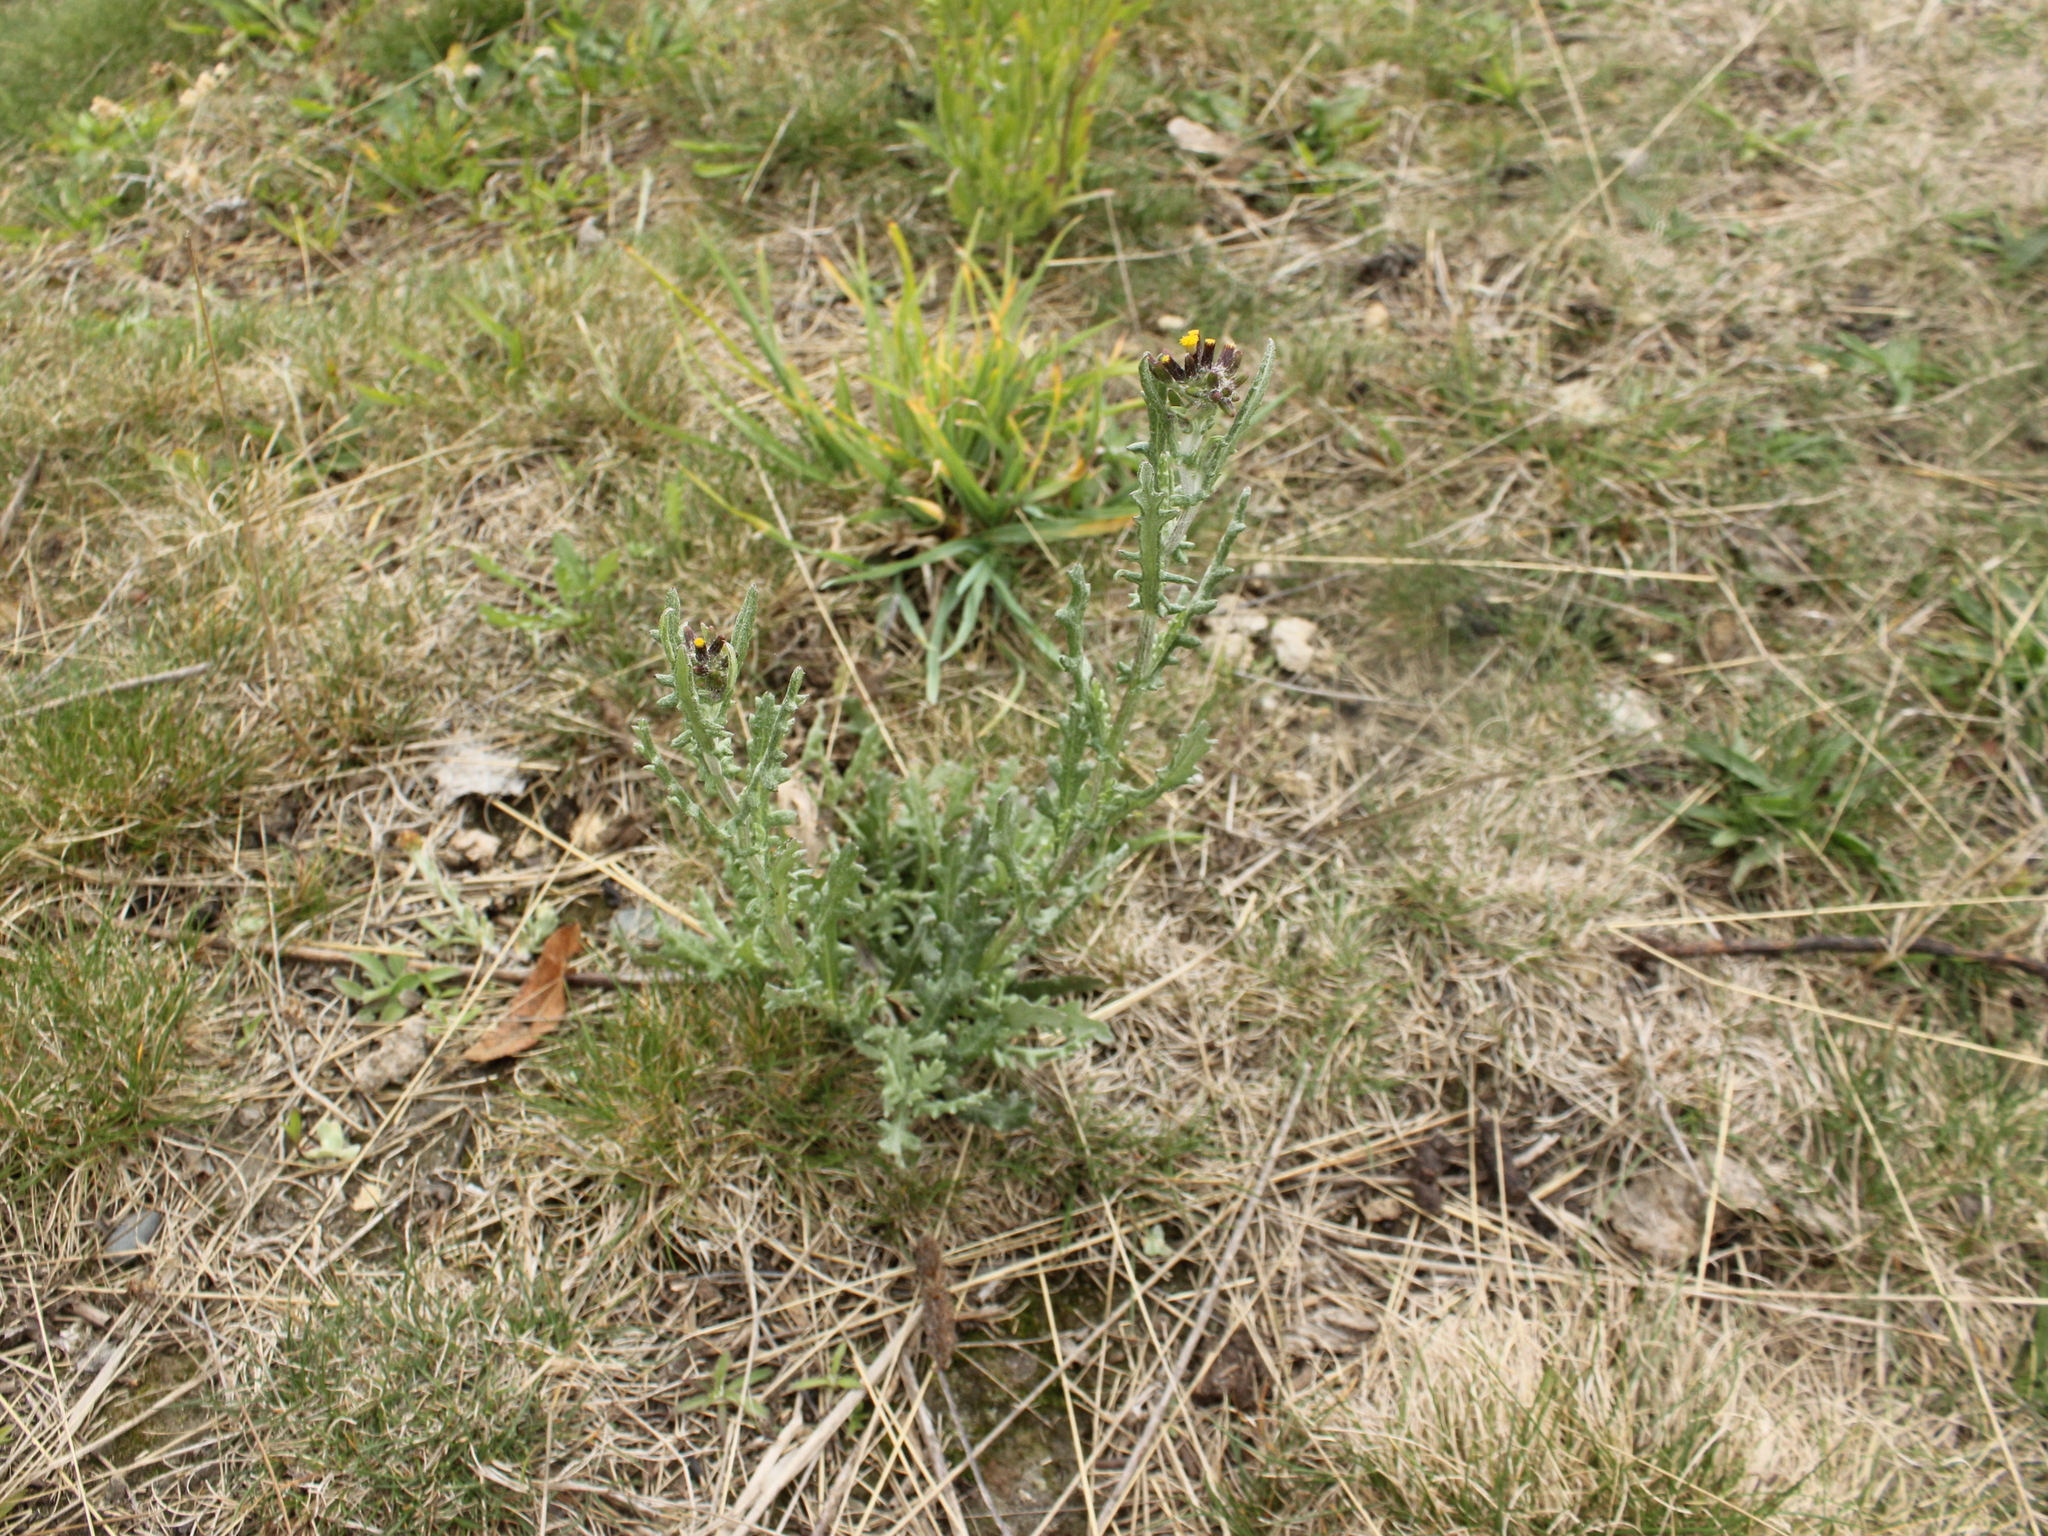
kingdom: Plantae
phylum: Tracheophyta
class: Magnoliopsida
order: Asterales
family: Asteraceae
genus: Senecio
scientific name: Senecio glomeratus
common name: Cutleaf burnweed
